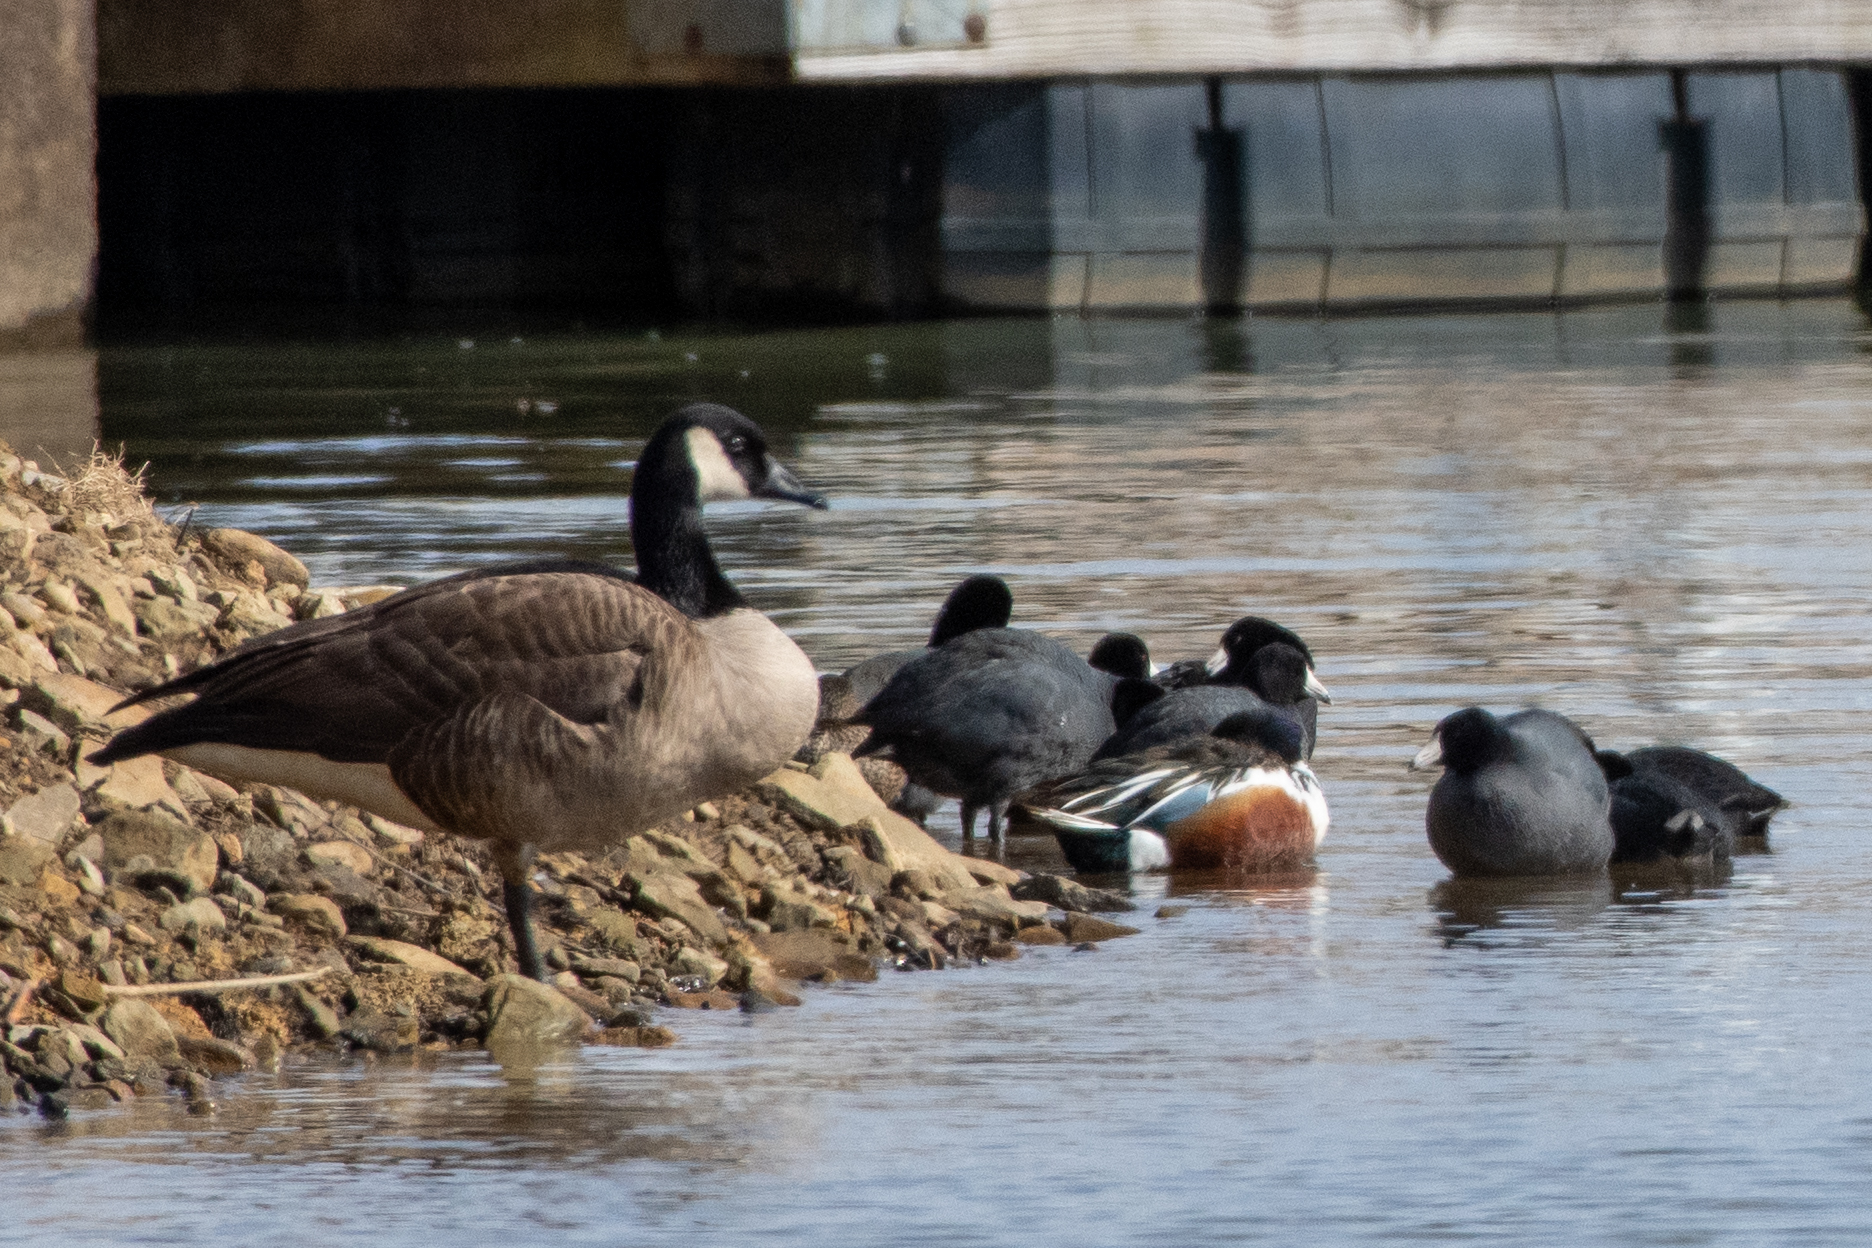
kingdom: Animalia
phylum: Chordata
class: Aves
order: Anseriformes
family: Anatidae
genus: Spatula
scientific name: Spatula clypeata
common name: Northern shoveler
